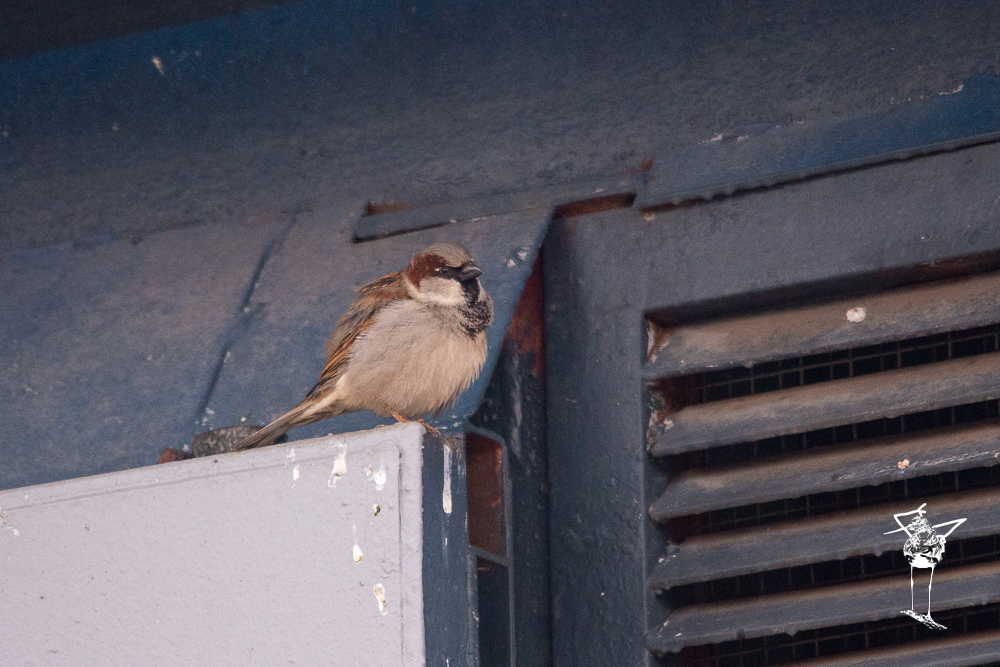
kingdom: Animalia
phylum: Chordata
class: Aves
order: Passeriformes
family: Passeridae
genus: Passer
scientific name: Passer domesticus
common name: House sparrow
